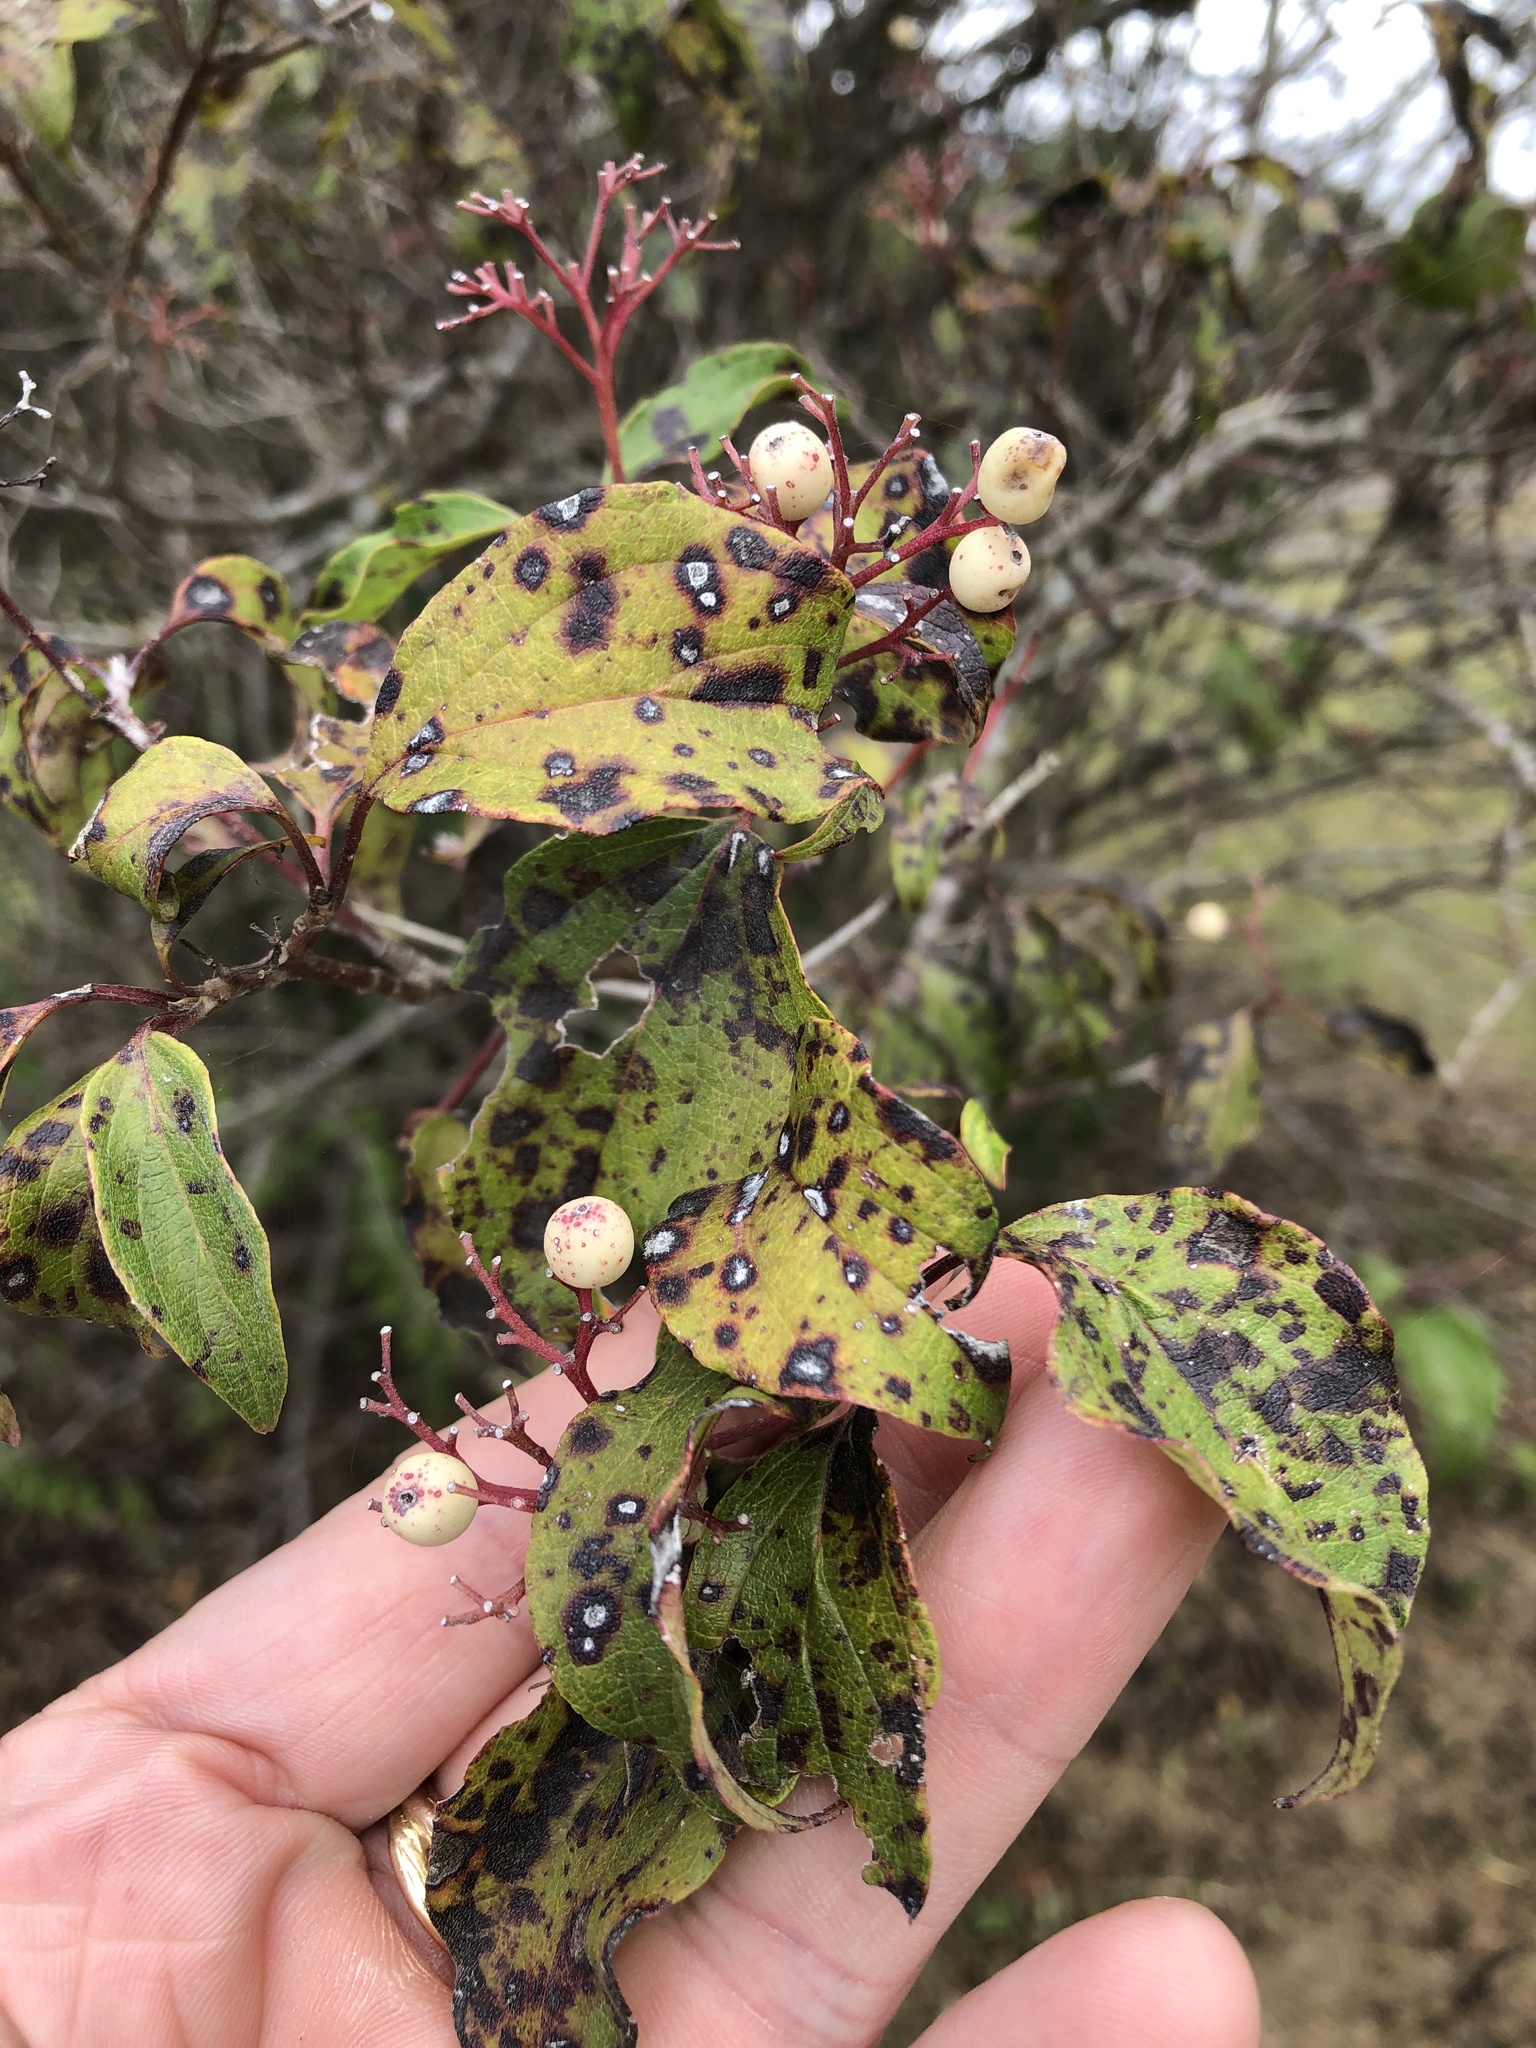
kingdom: Plantae
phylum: Tracheophyta
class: Magnoliopsida
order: Cornales
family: Cornaceae
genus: Cornus
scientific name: Cornus drummondii
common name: Rough-leaf dogwood
